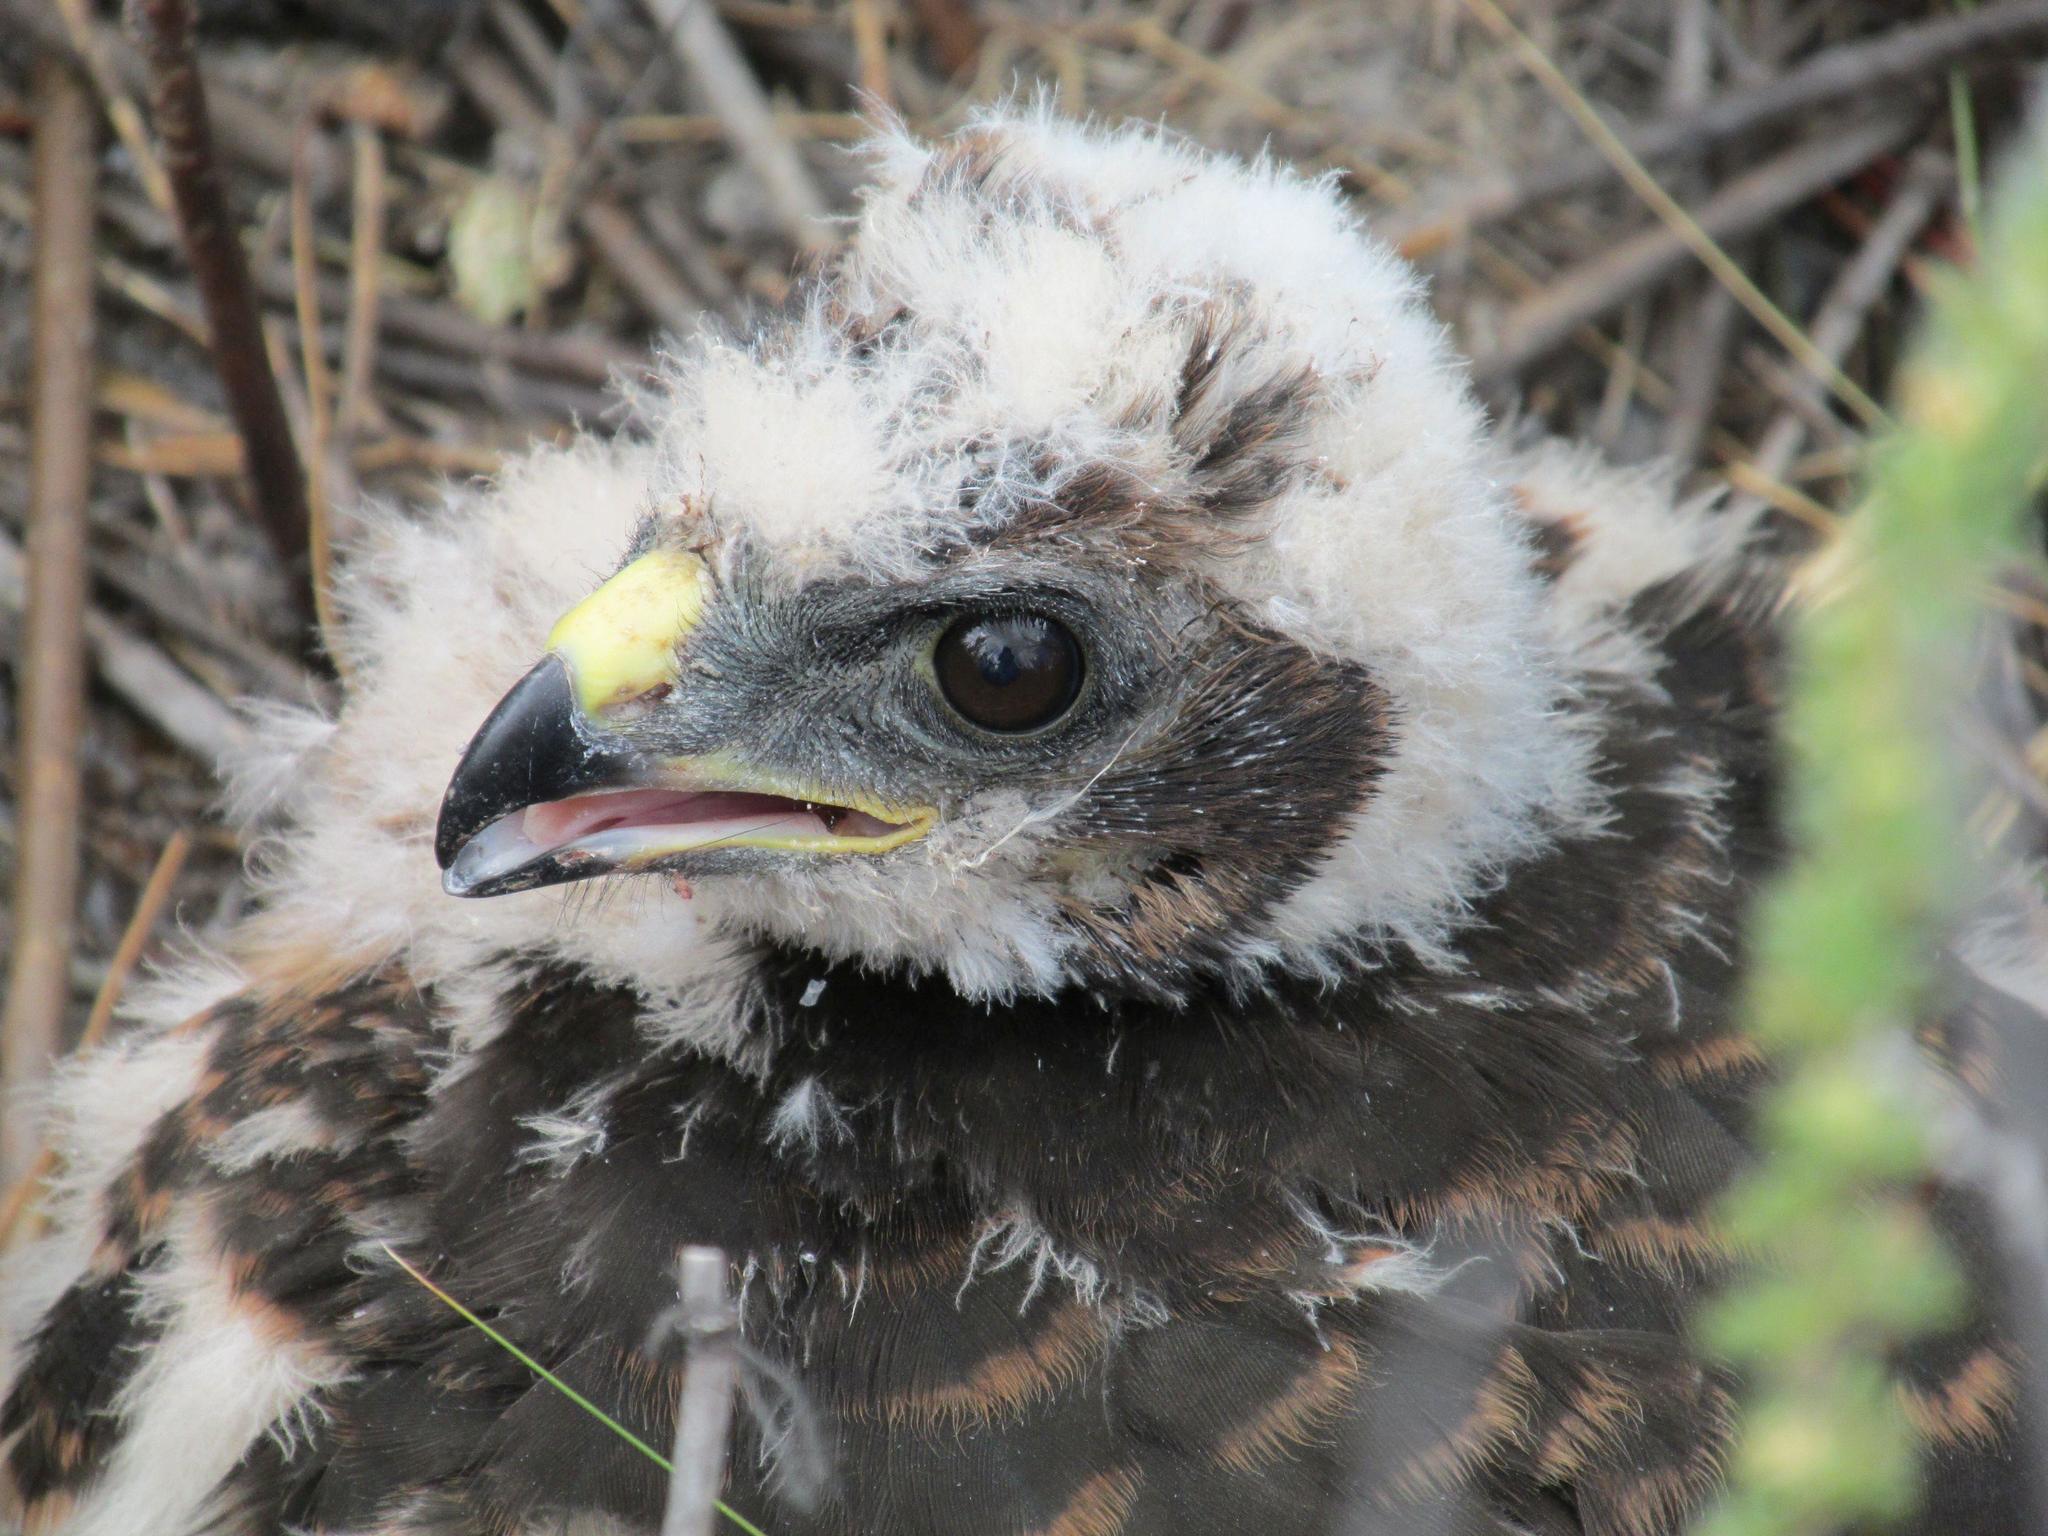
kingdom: Animalia
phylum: Chordata
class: Aves
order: Accipitriformes
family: Accipitridae
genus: Circus
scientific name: Circus maurus
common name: Black harrier
